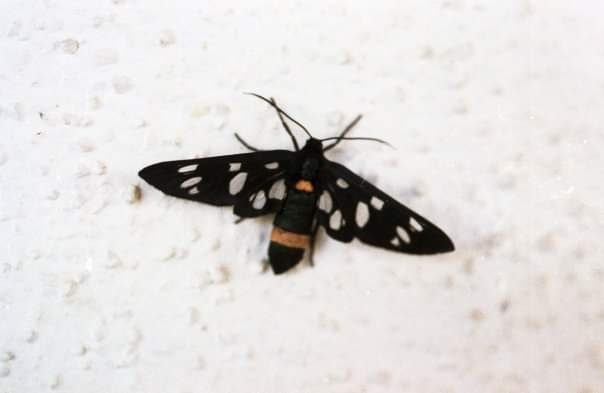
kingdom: Animalia
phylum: Arthropoda
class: Insecta
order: Lepidoptera
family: Erebidae
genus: Amata
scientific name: Amata phegea
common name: Nine-spotted
